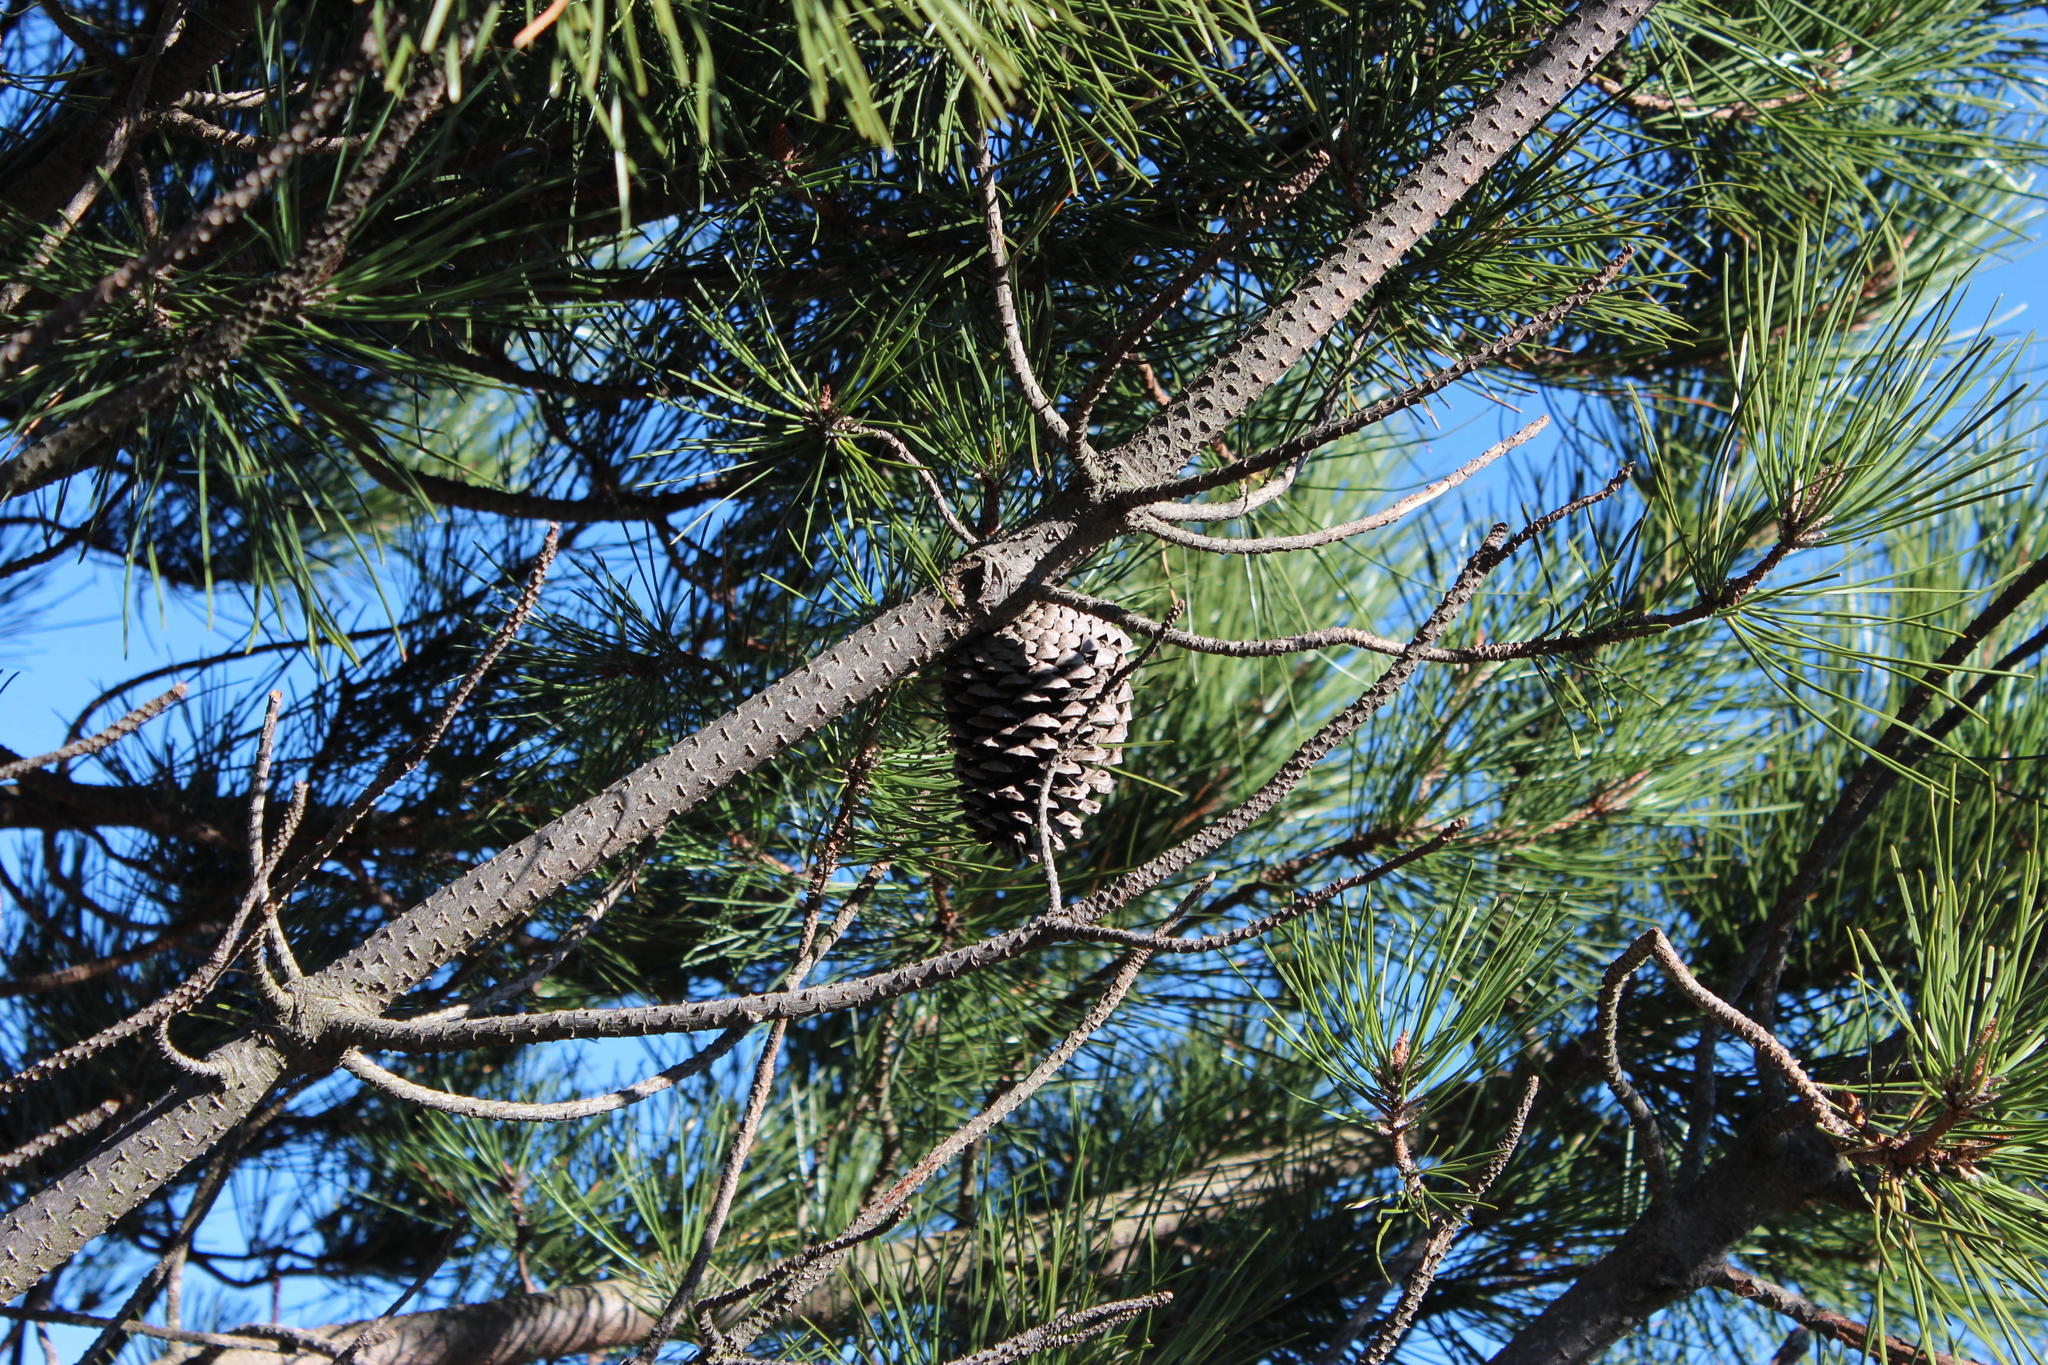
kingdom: Plantae
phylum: Tracheophyta
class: Pinopsida
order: Pinales
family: Pinaceae
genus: Pinus
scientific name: Pinus pinaster
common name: Maritime pine
